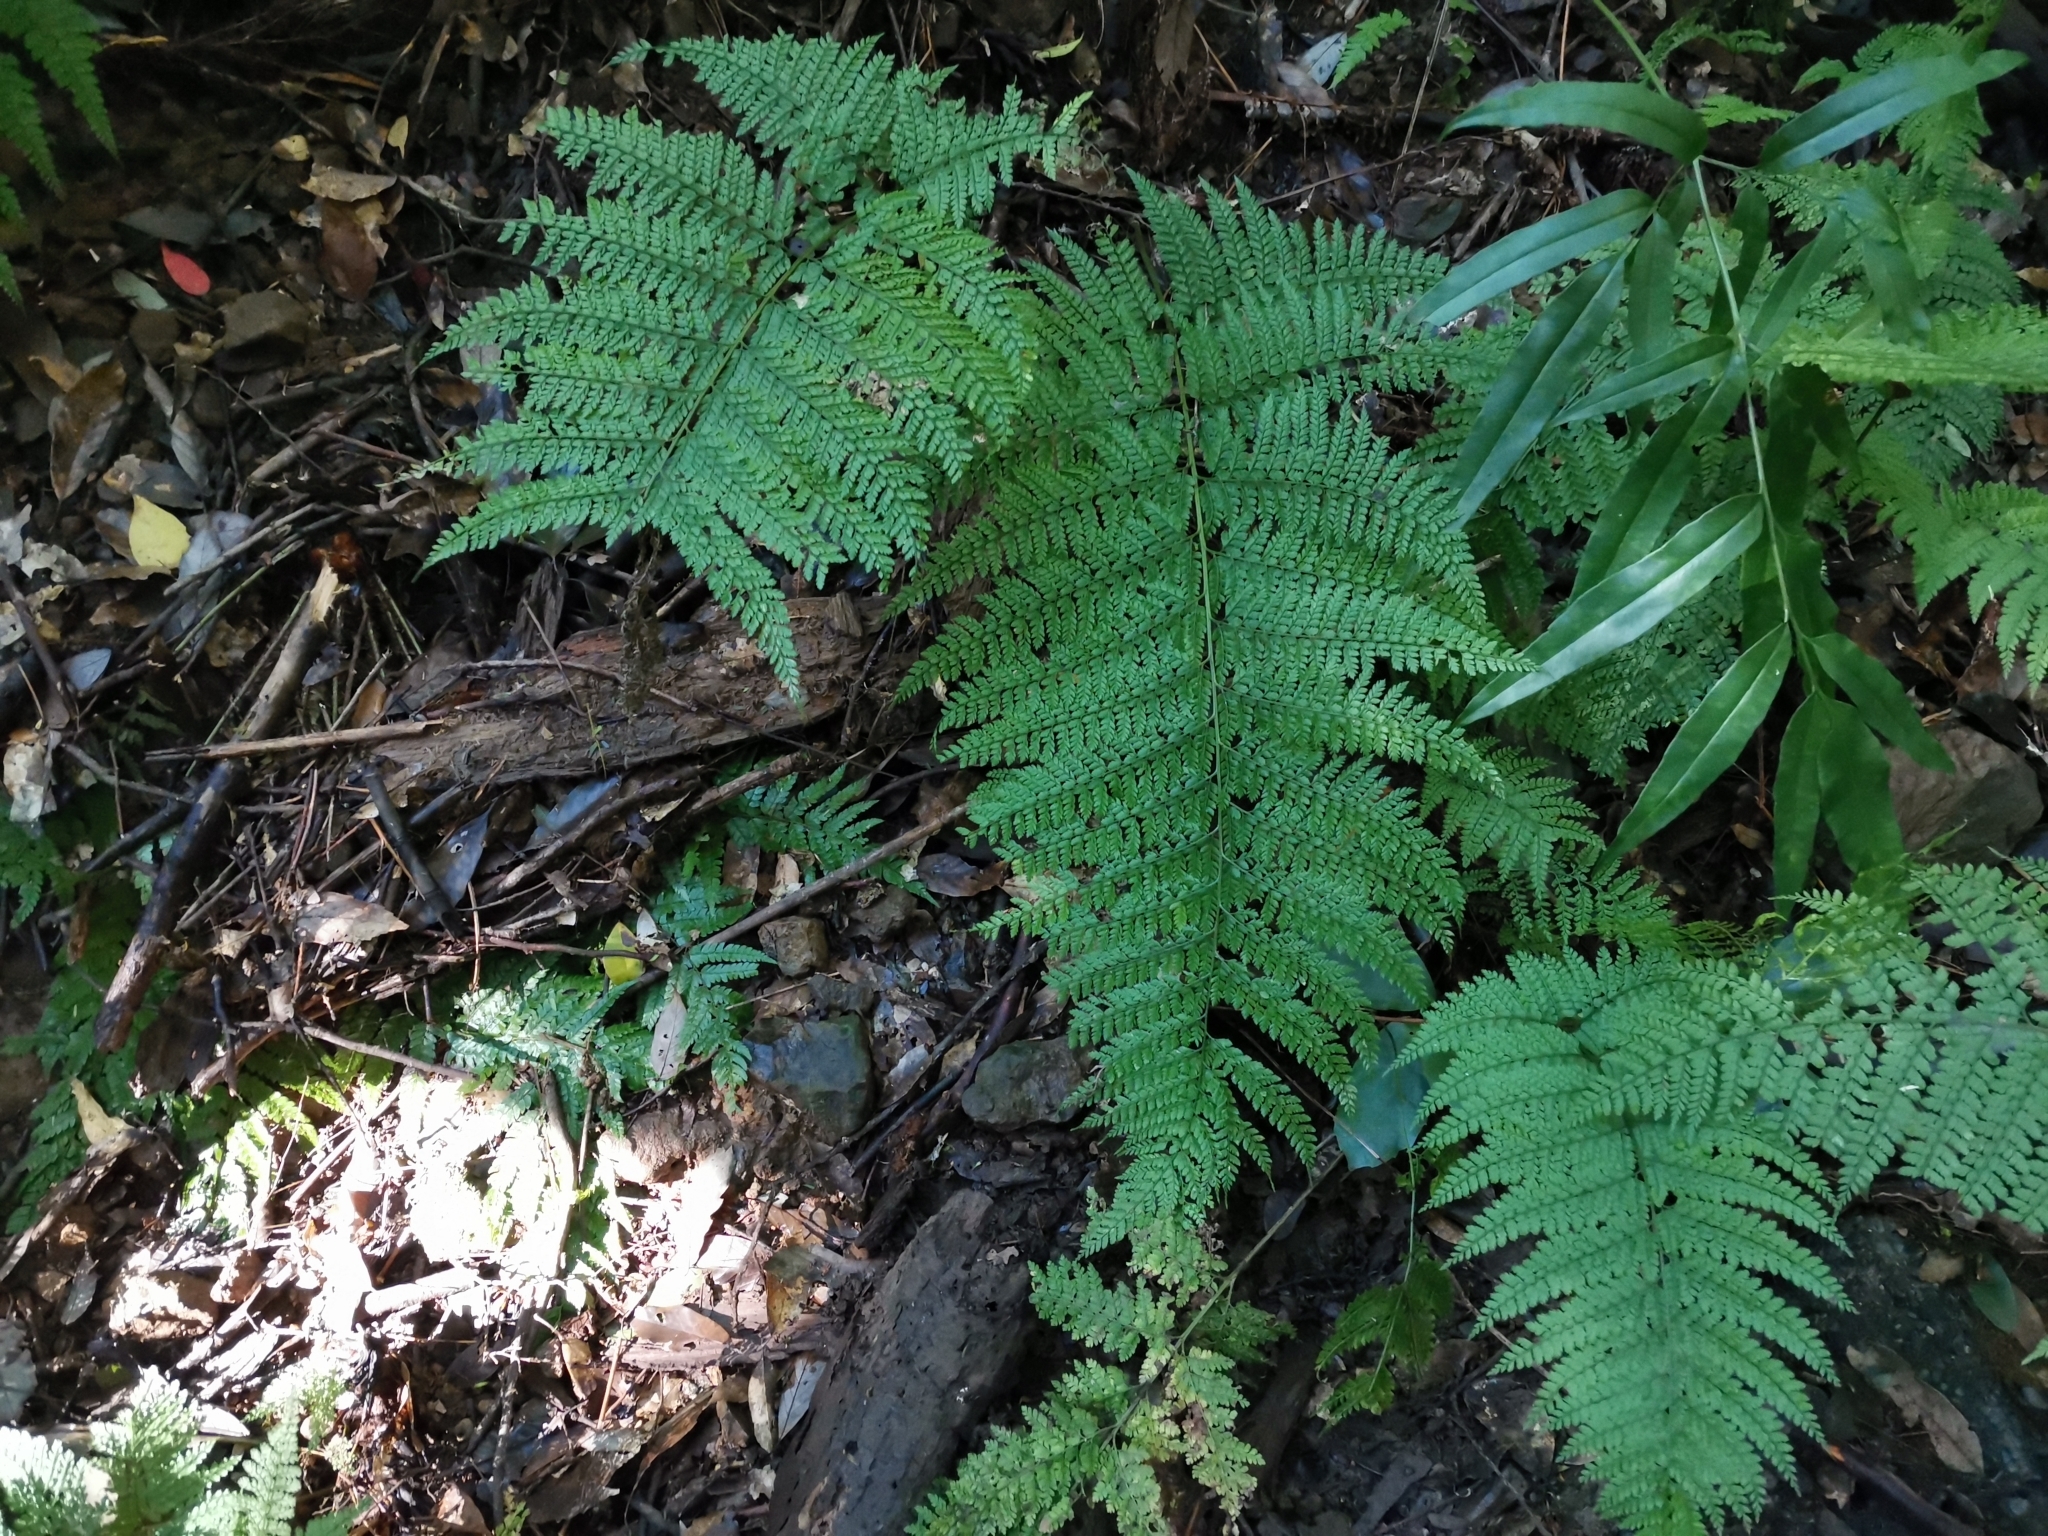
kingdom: Plantae
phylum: Tracheophyta
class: Polypodiopsida
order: Polypodiales
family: Dryopteridaceae
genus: Arachniodes
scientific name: Arachniodes standishii
